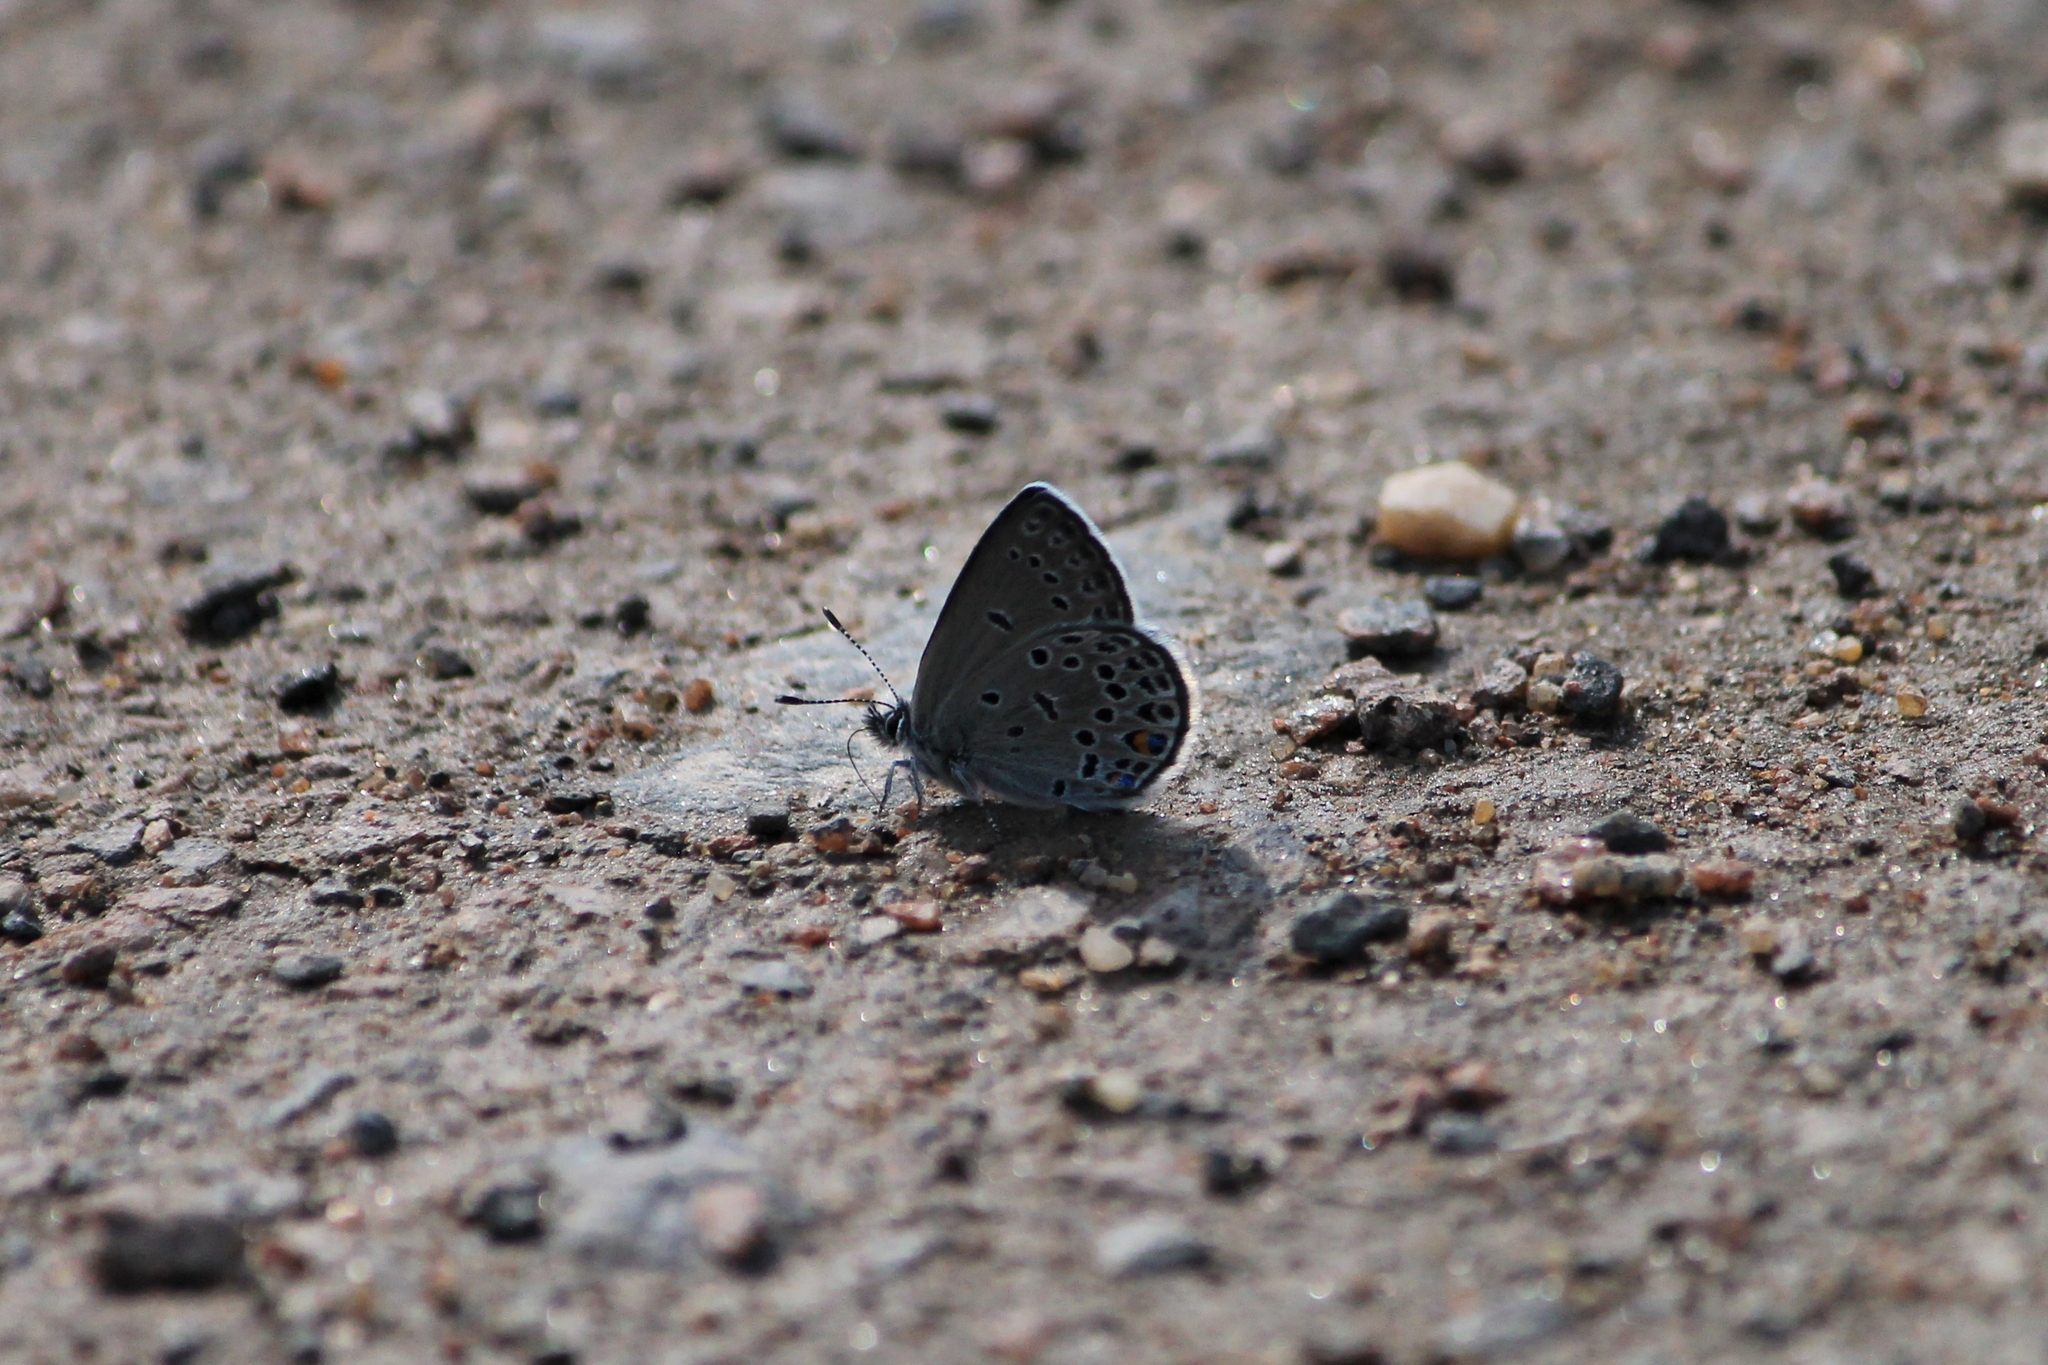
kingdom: Animalia
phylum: Arthropoda
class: Insecta
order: Lepidoptera
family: Lycaenidae
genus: Vacciniina
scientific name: Vacciniina optilete
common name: Cranberry blue
